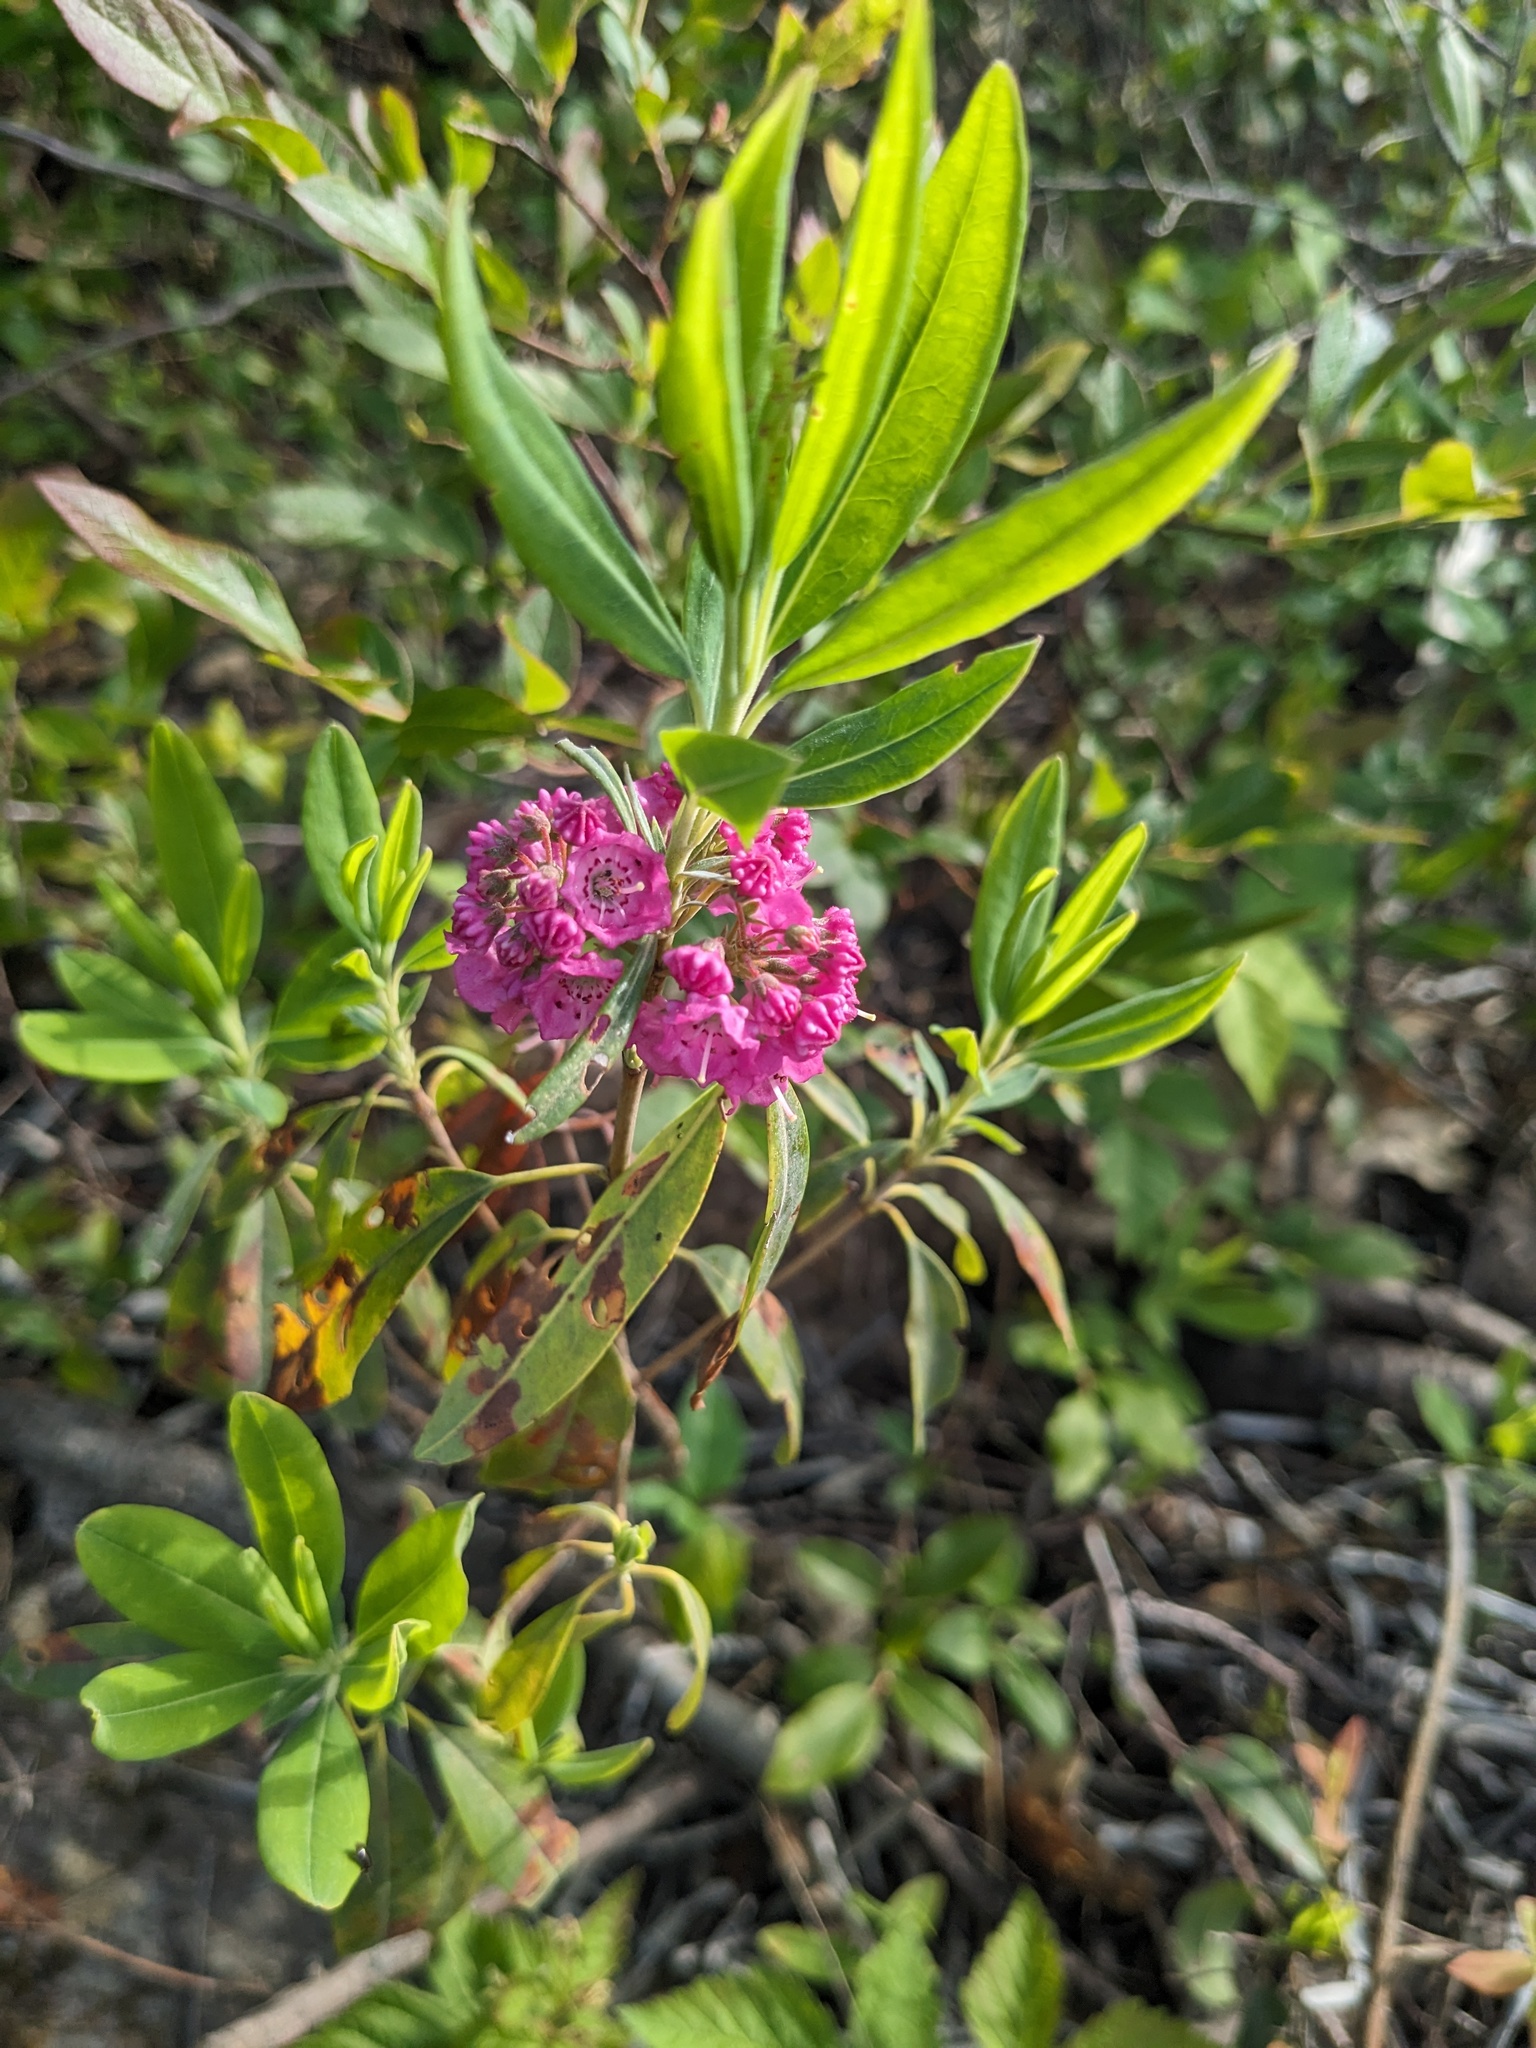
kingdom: Plantae
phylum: Tracheophyta
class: Magnoliopsida
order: Ericales
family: Ericaceae
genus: Kalmia
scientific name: Kalmia angustifolia
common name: Sheep-laurel
